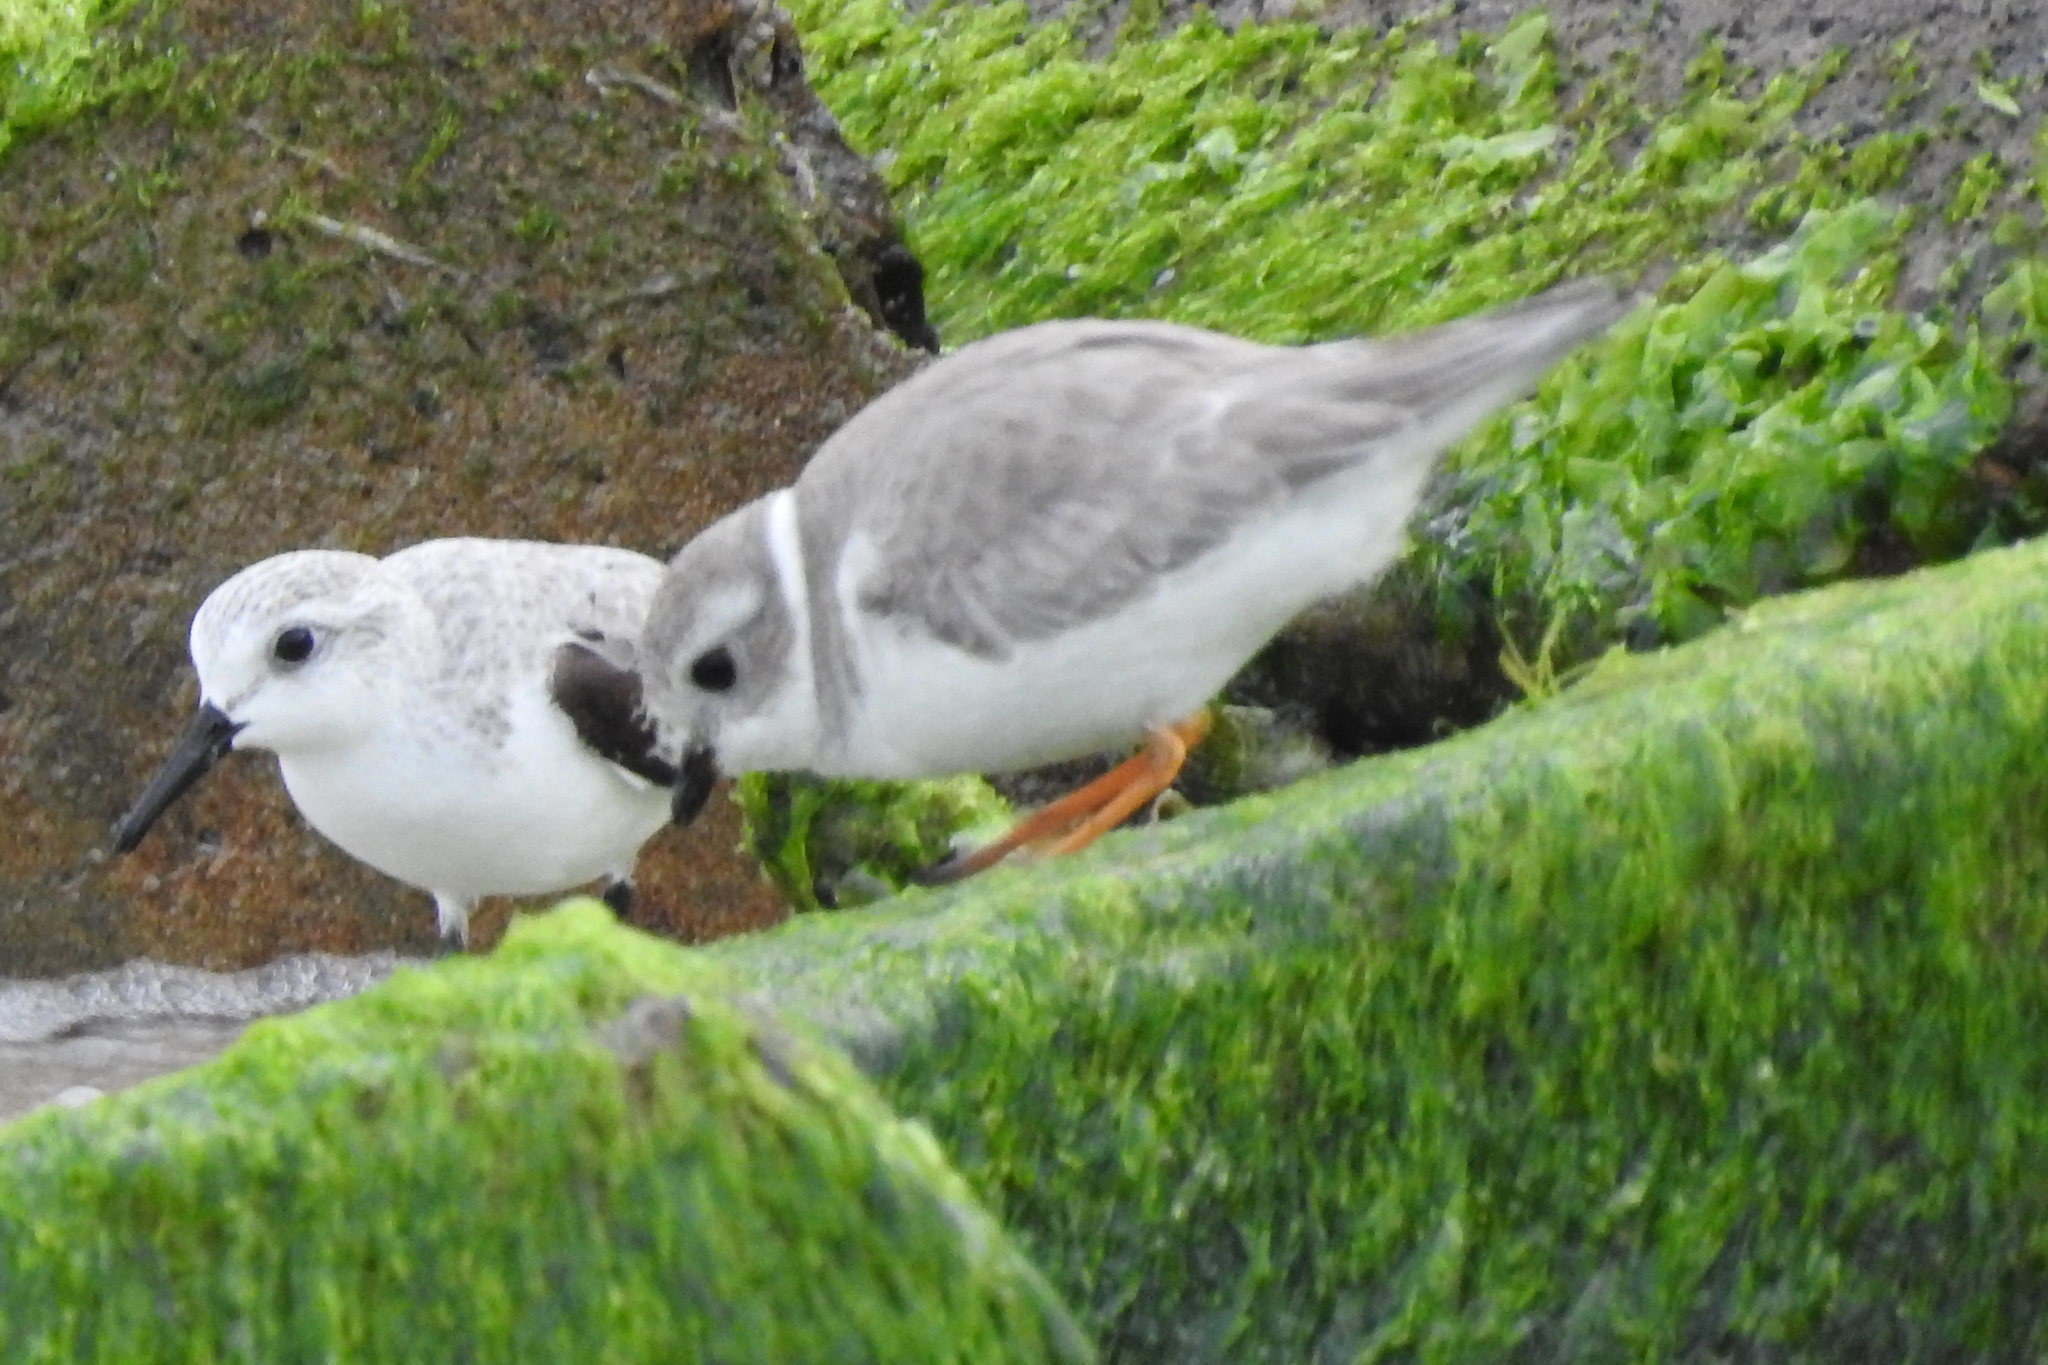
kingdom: Animalia
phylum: Chordata
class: Aves
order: Charadriiformes
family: Charadriidae
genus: Charadrius
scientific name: Charadrius melodus
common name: Piping plover
